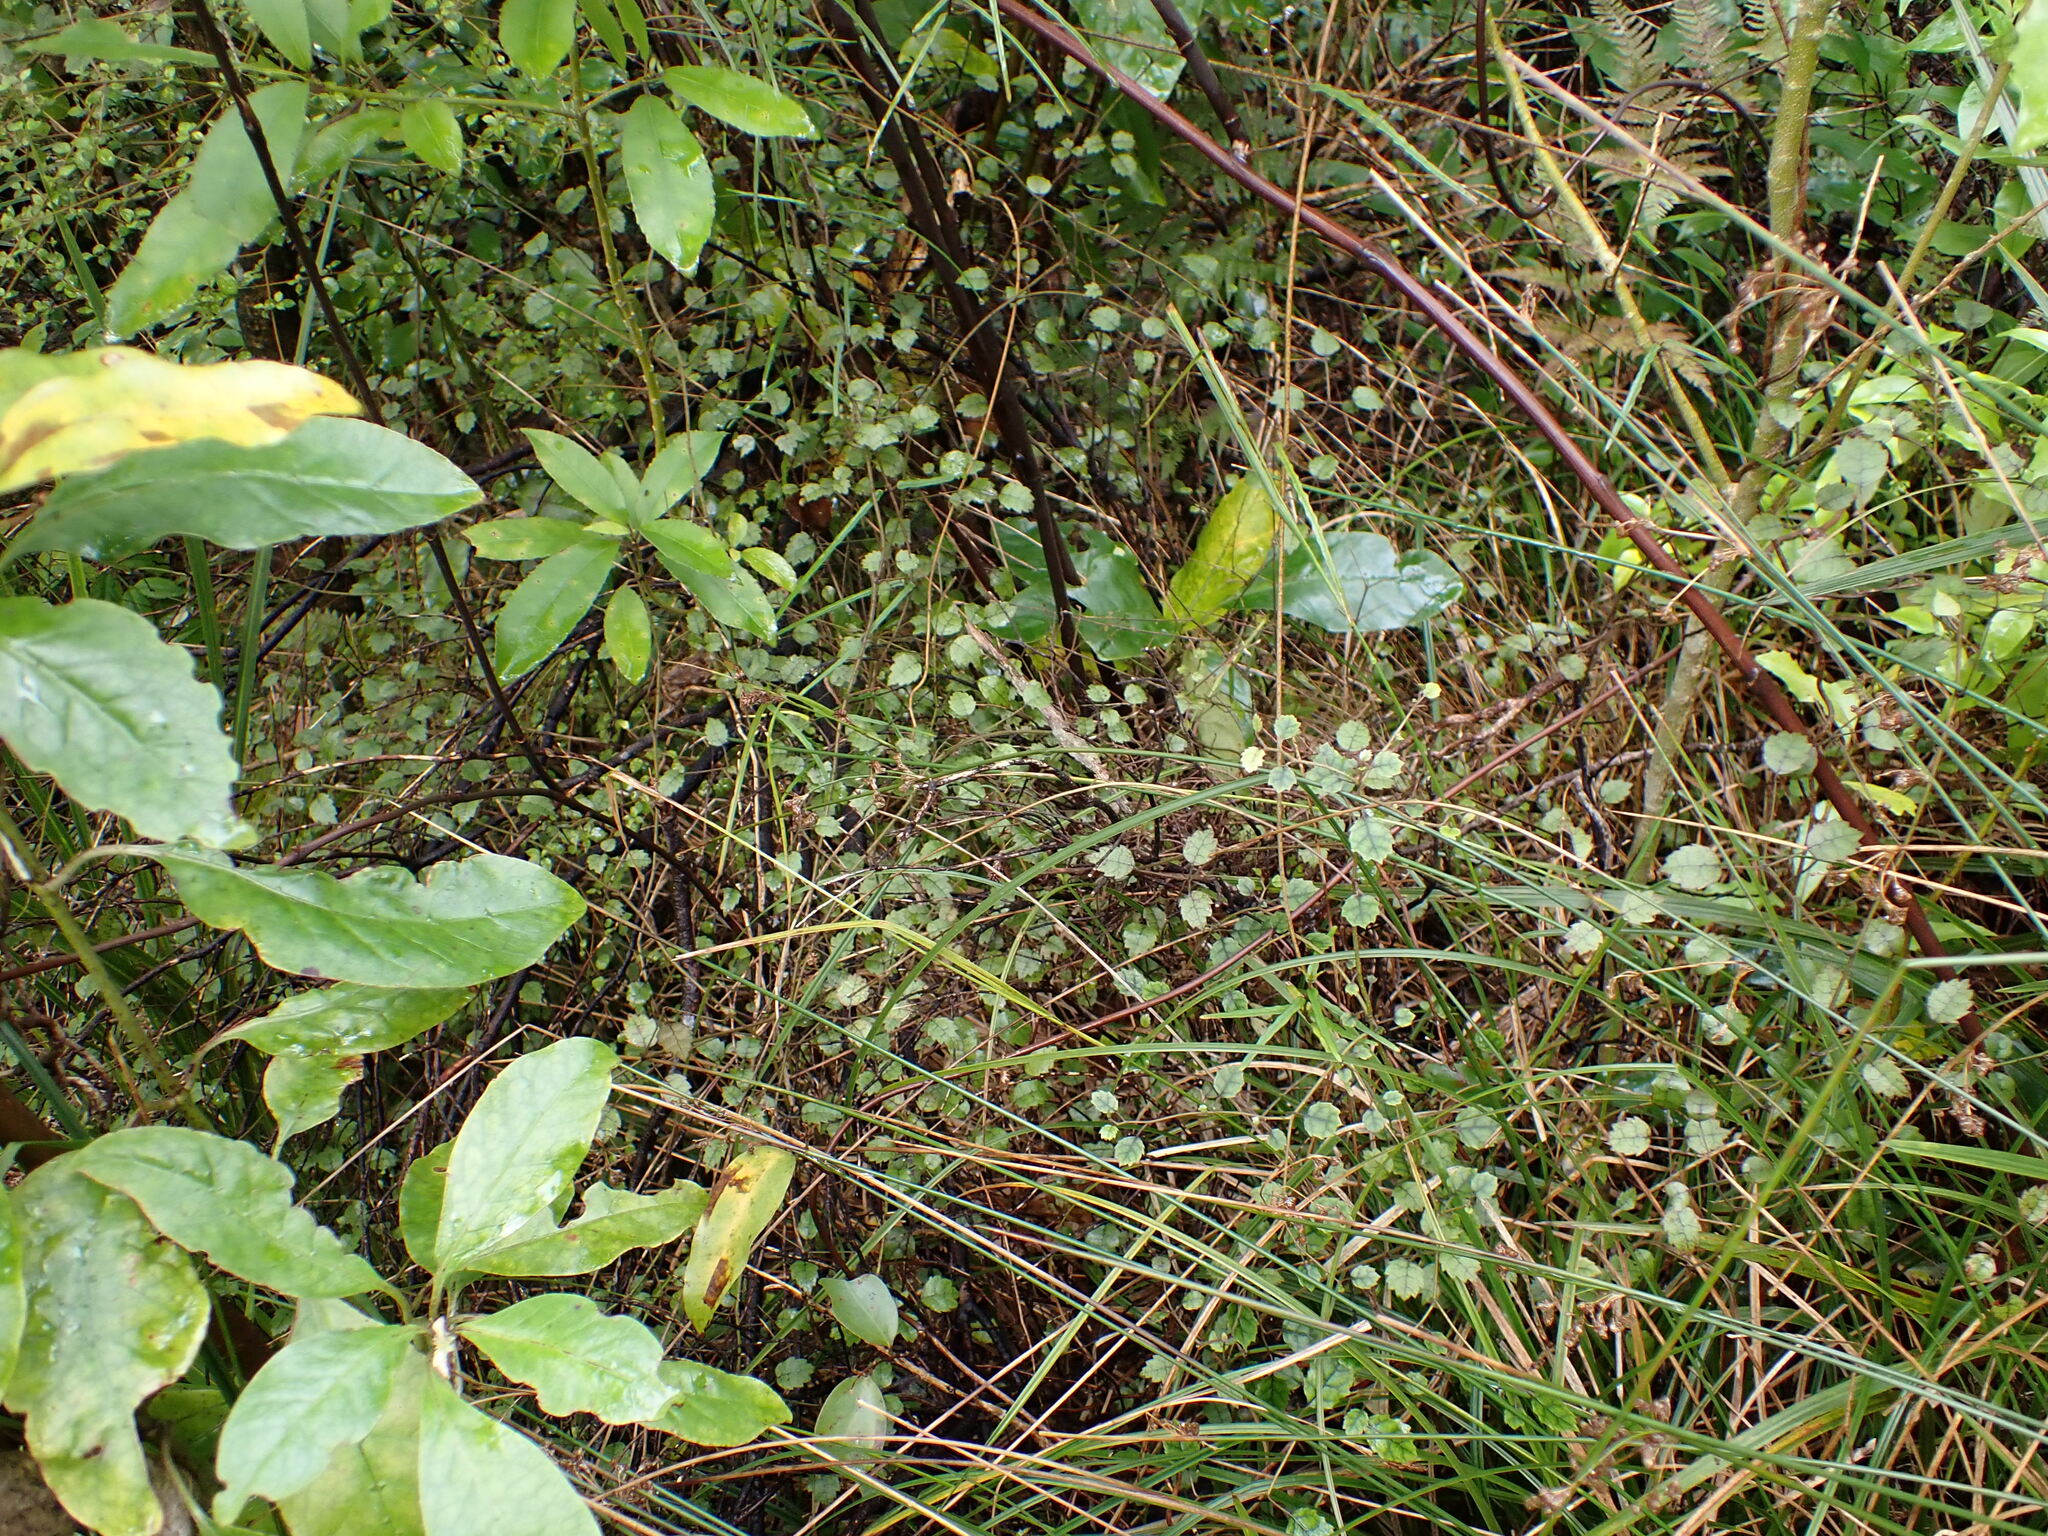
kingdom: Plantae
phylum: Tracheophyta
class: Magnoliopsida
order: Rosales
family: Rosaceae
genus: Rubus
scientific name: Rubus australis
